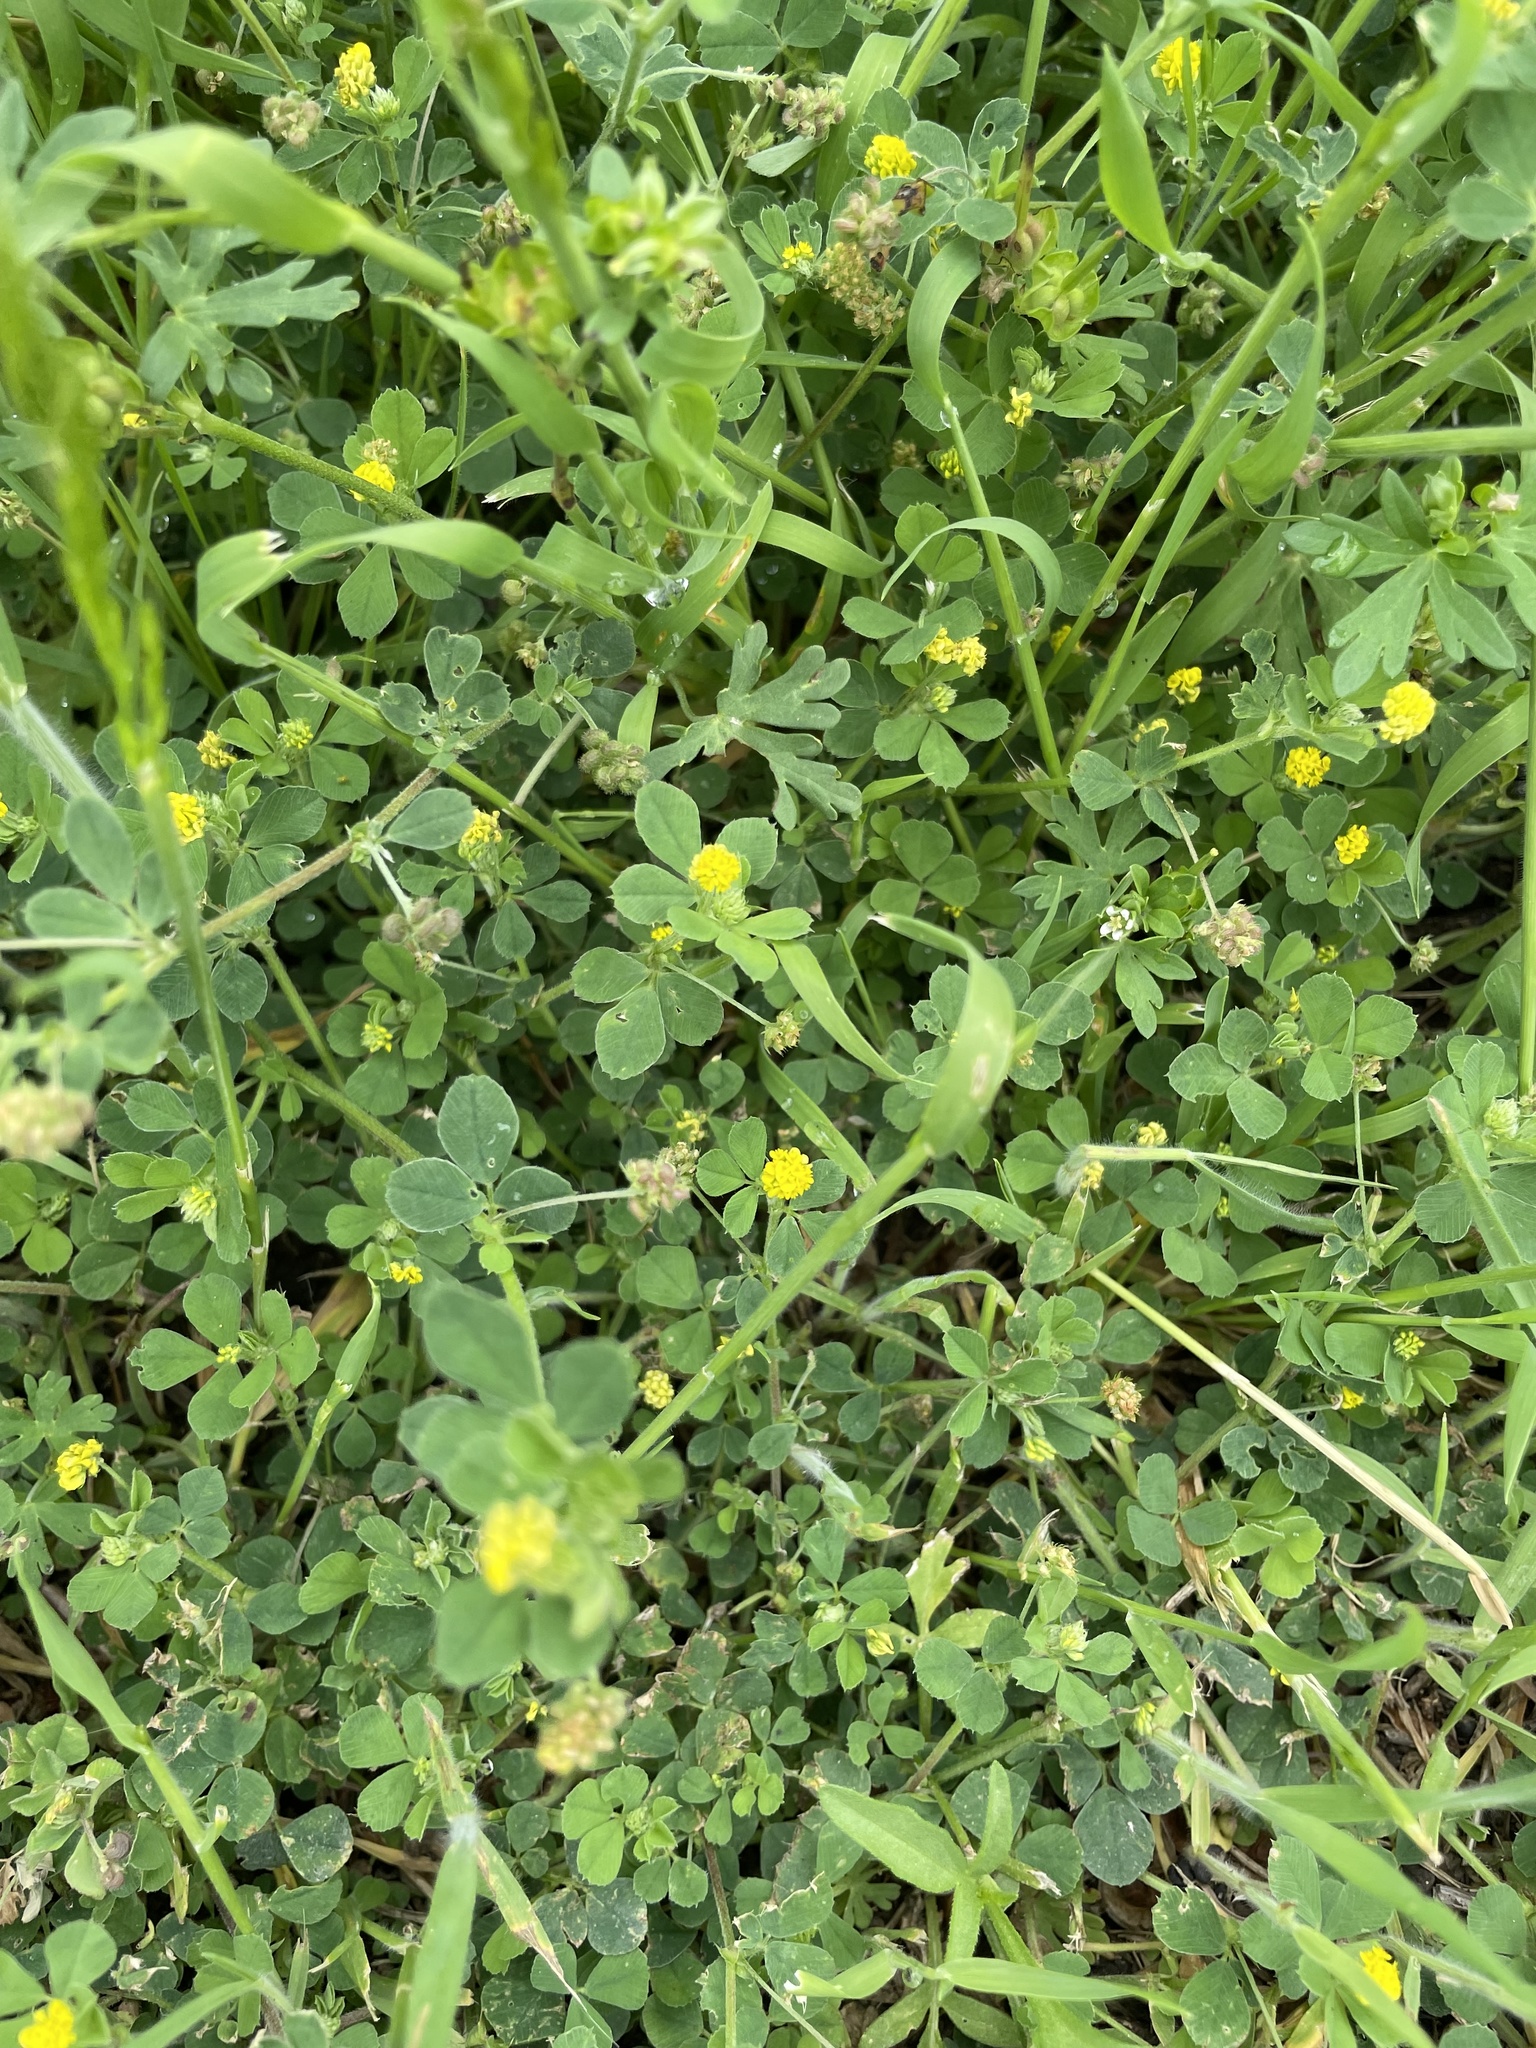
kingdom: Plantae
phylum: Tracheophyta
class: Magnoliopsida
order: Fabales
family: Fabaceae
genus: Medicago
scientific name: Medicago lupulina
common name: Black medick
